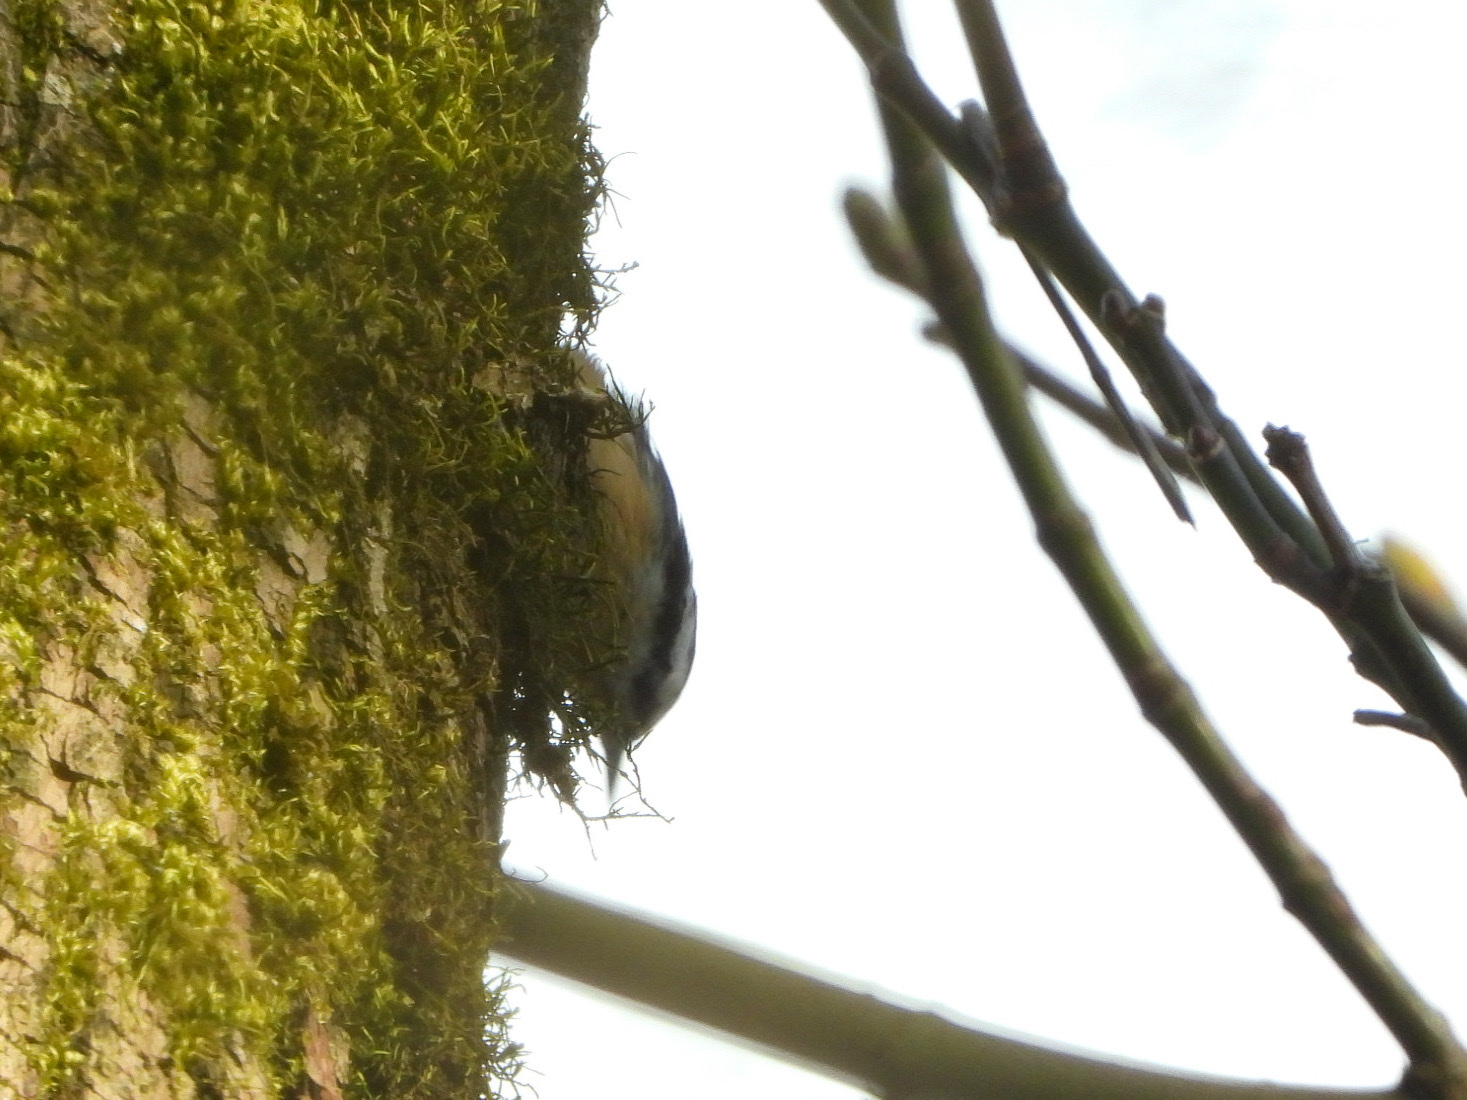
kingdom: Animalia
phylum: Chordata
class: Aves
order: Passeriformes
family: Sittidae
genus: Sitta
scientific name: Sitta canadensis
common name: Red-breasted nuthatch
